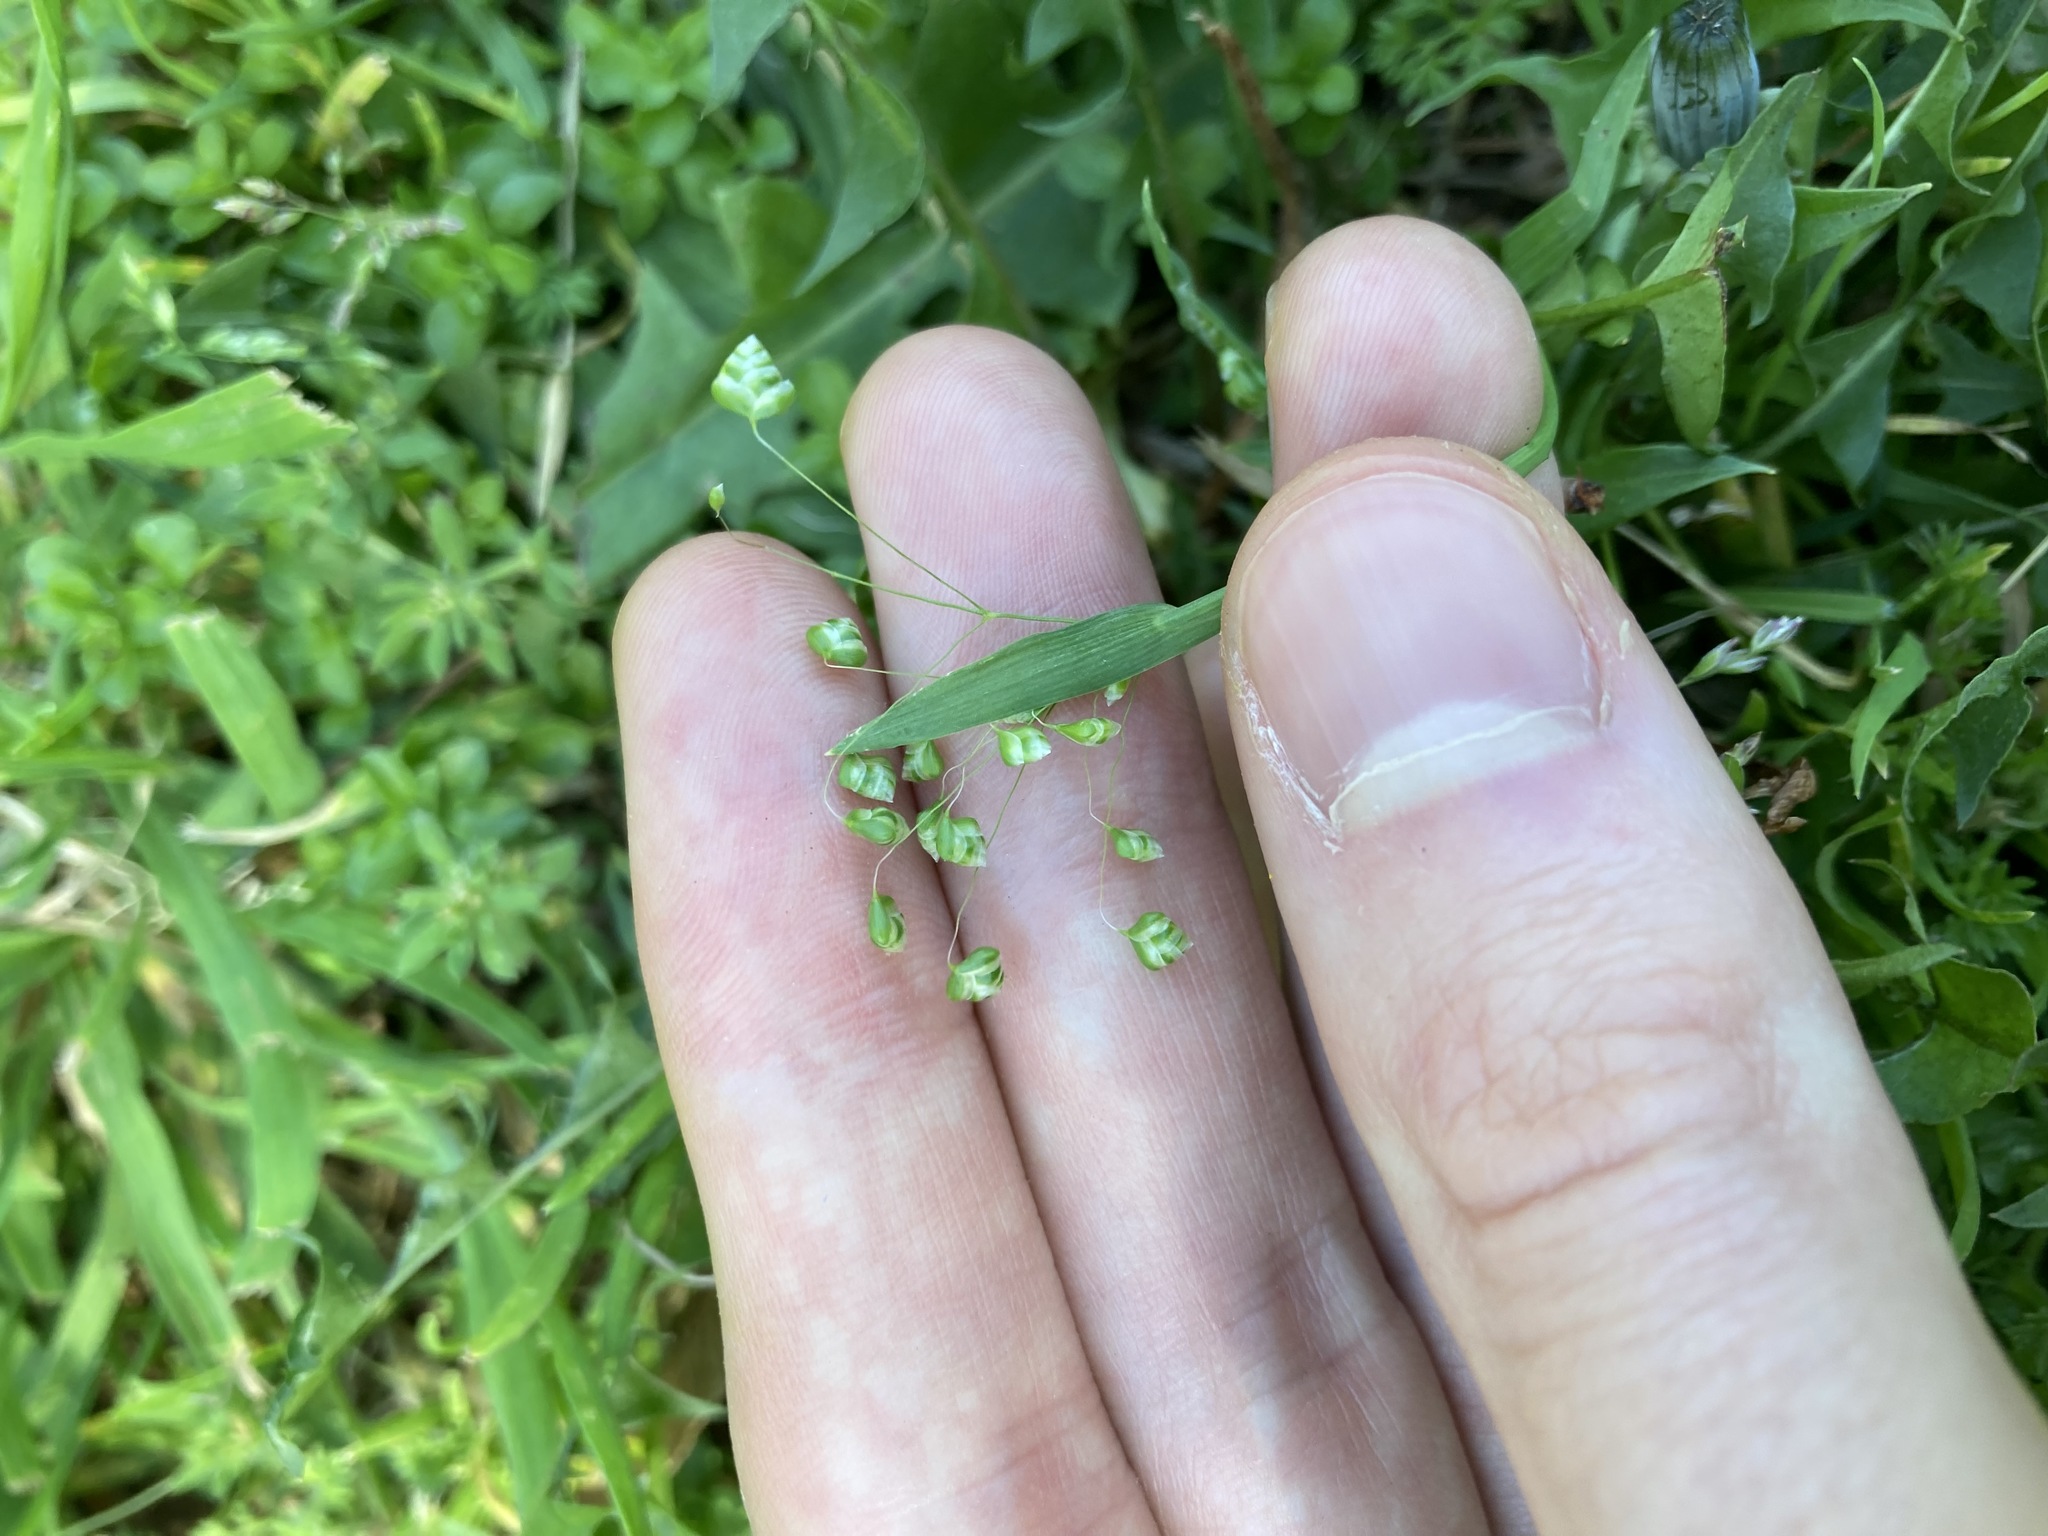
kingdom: Plantae
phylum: Tracheophyta
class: Liliopsida
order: Poales
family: Poaceae
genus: Briza
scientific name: Briza minor
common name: Lesser quaking-grass
